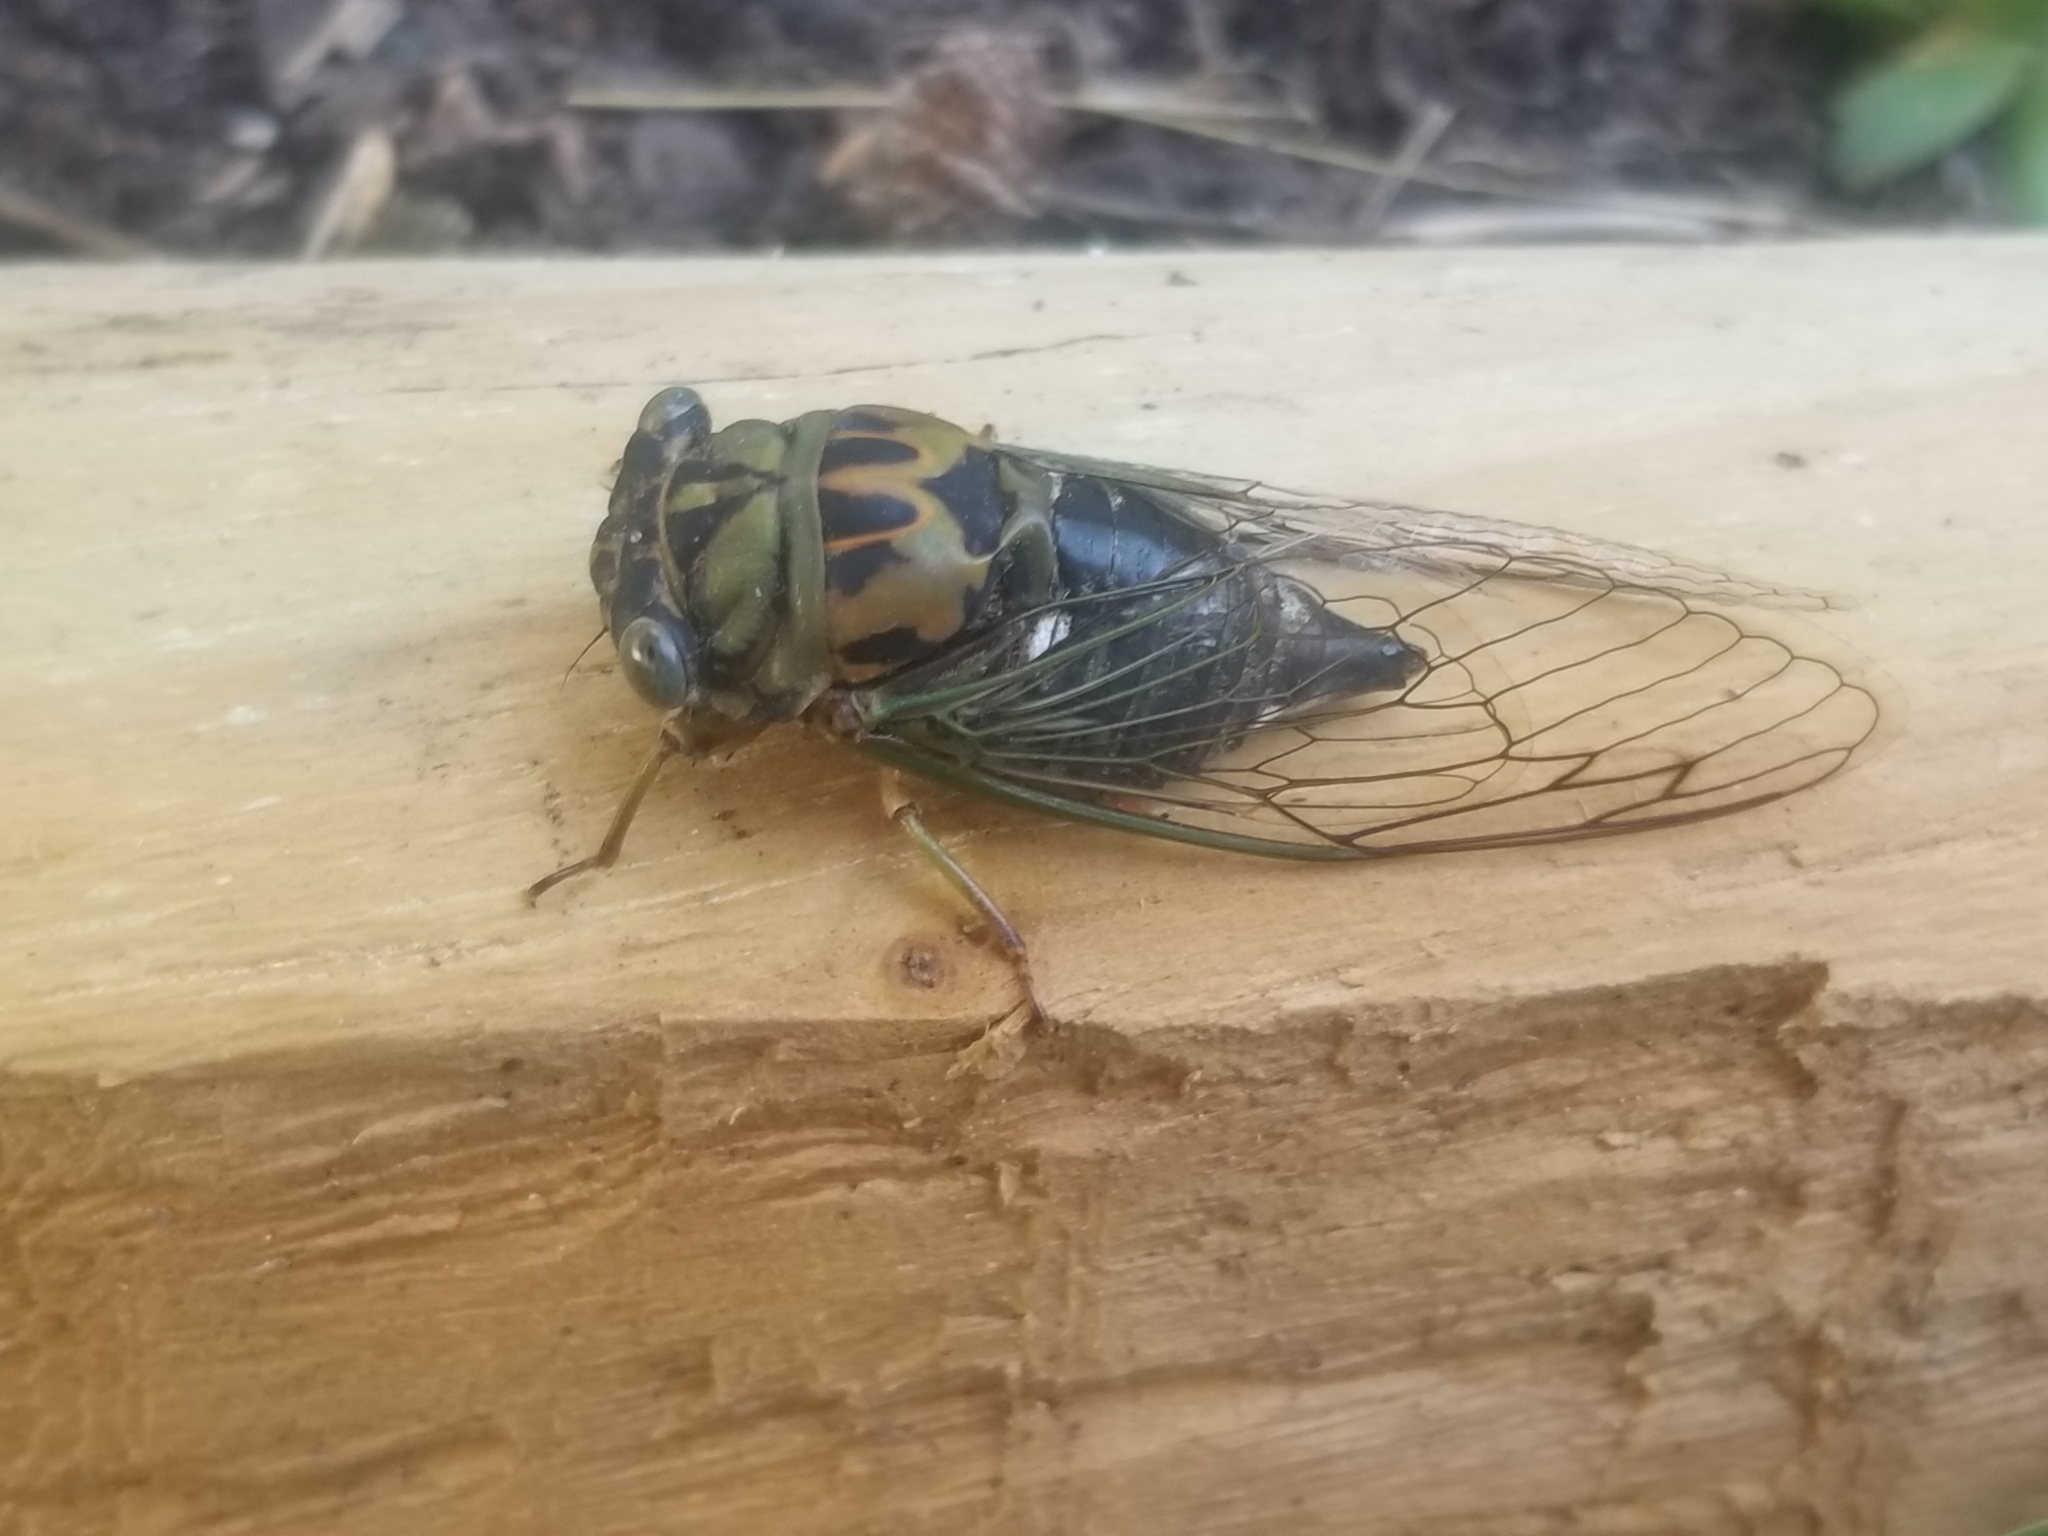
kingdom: Animalia
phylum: Arthropoda
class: Insecta
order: Hemiptera
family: Cicadidae
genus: Neotibicen
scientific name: Neotibicen pruinosus
